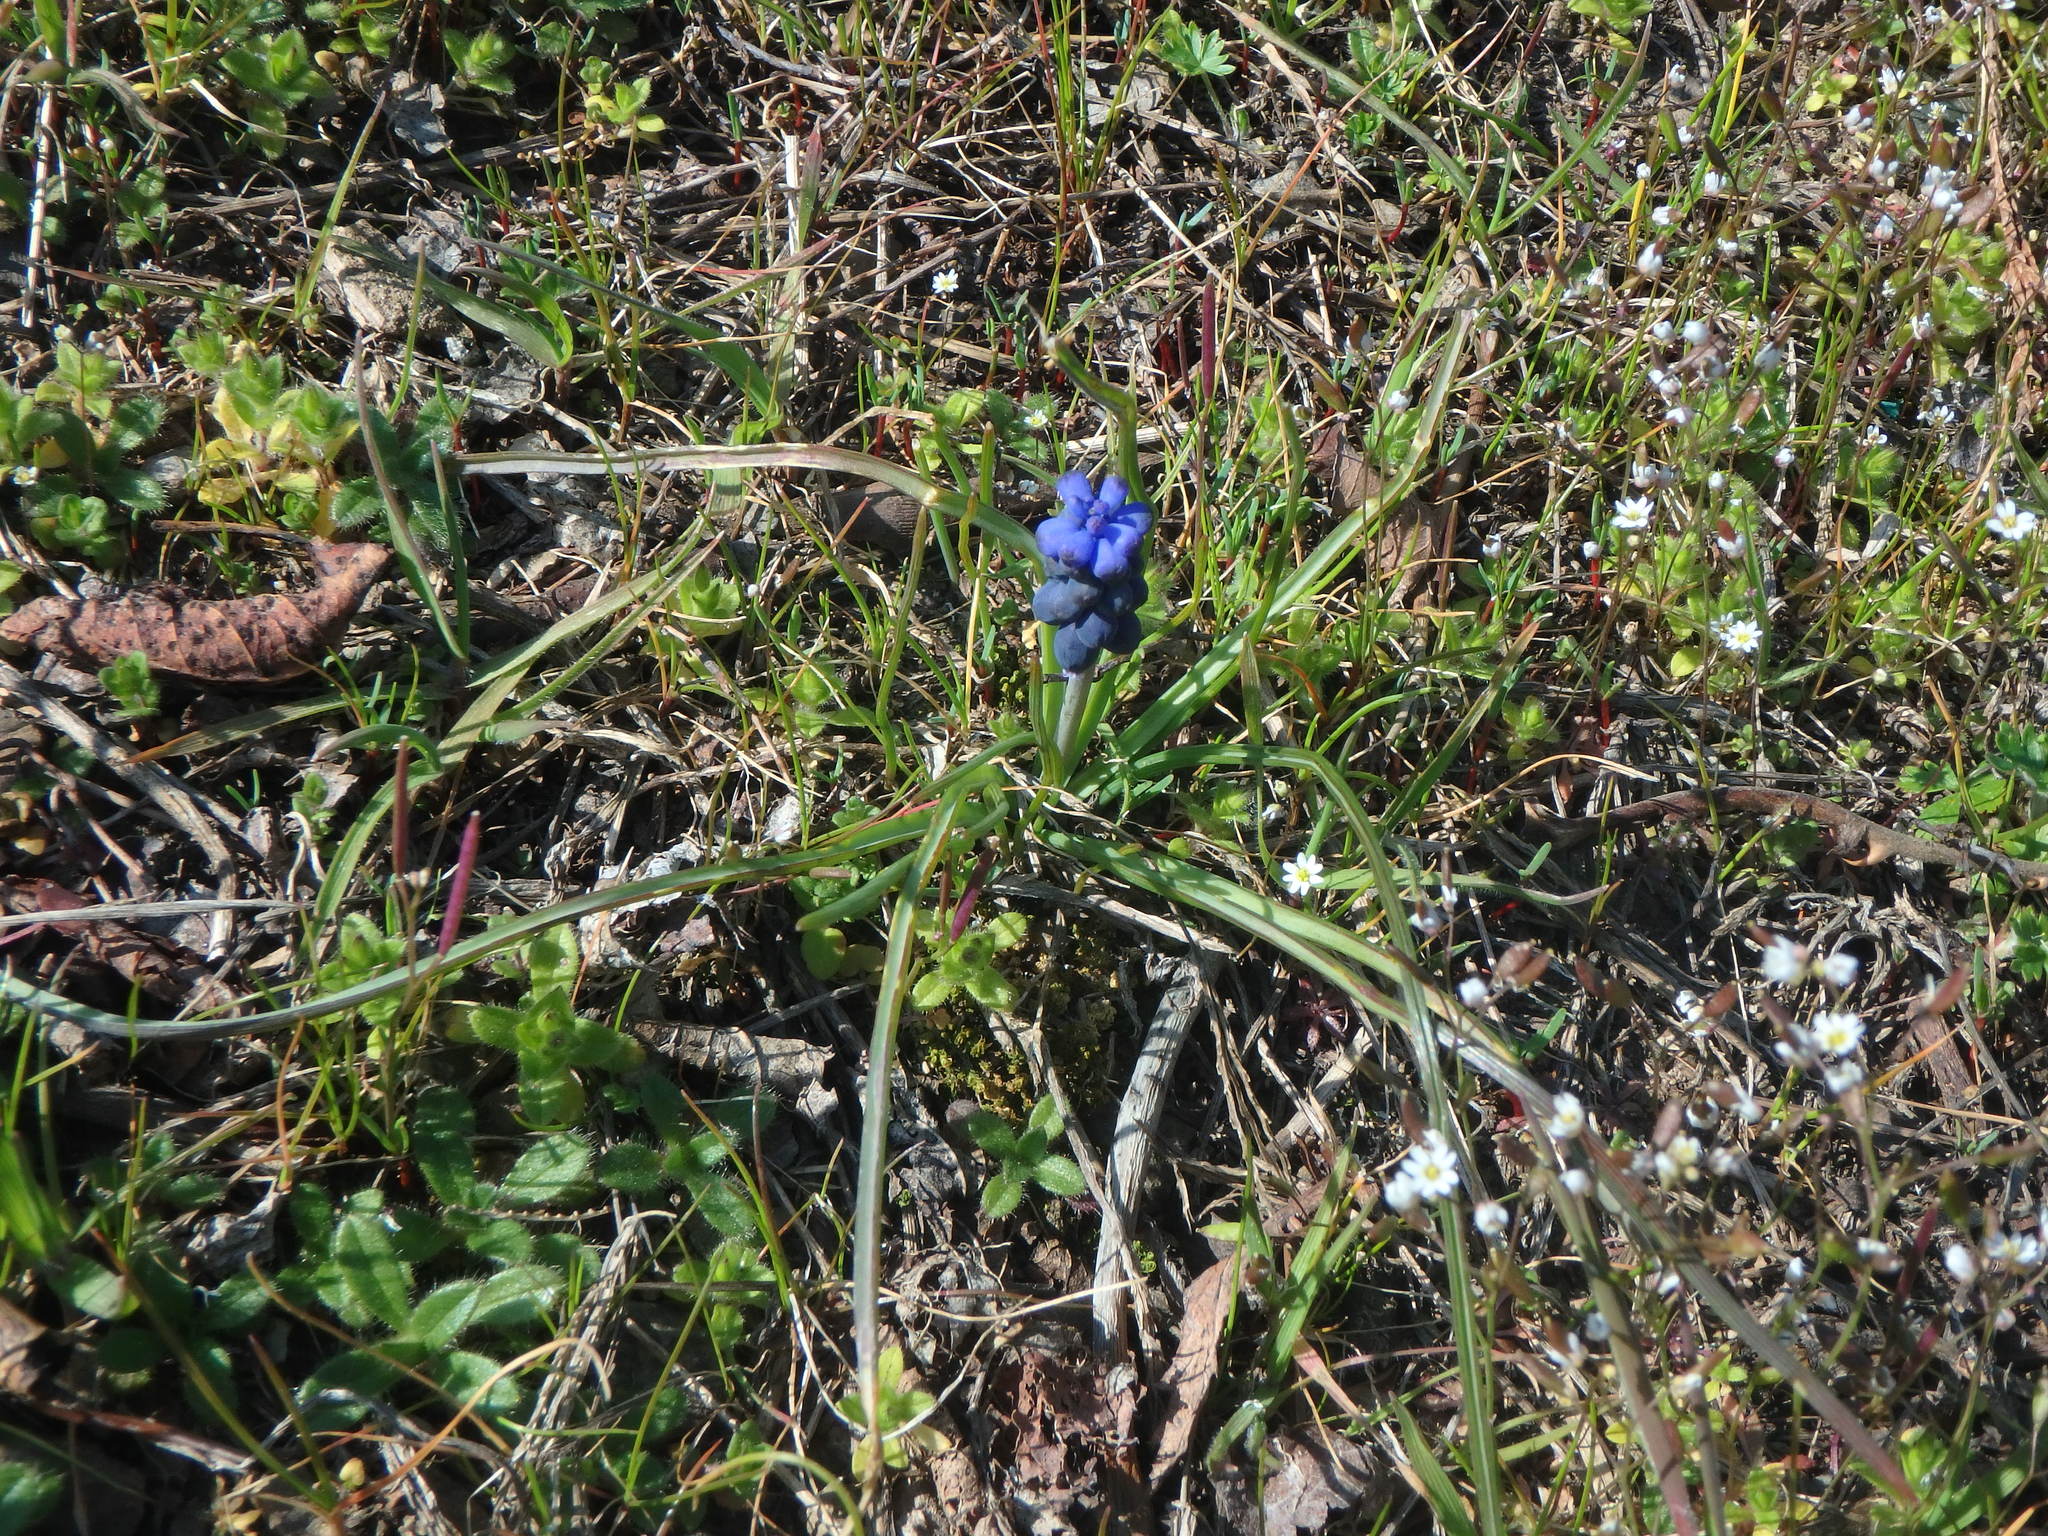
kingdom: Plantae
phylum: Tracheophyta
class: Liliopsida
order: Asparagales
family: Asparagaceae
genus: Muscari
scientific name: Muscari neglectum
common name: Grape-hyacinth
